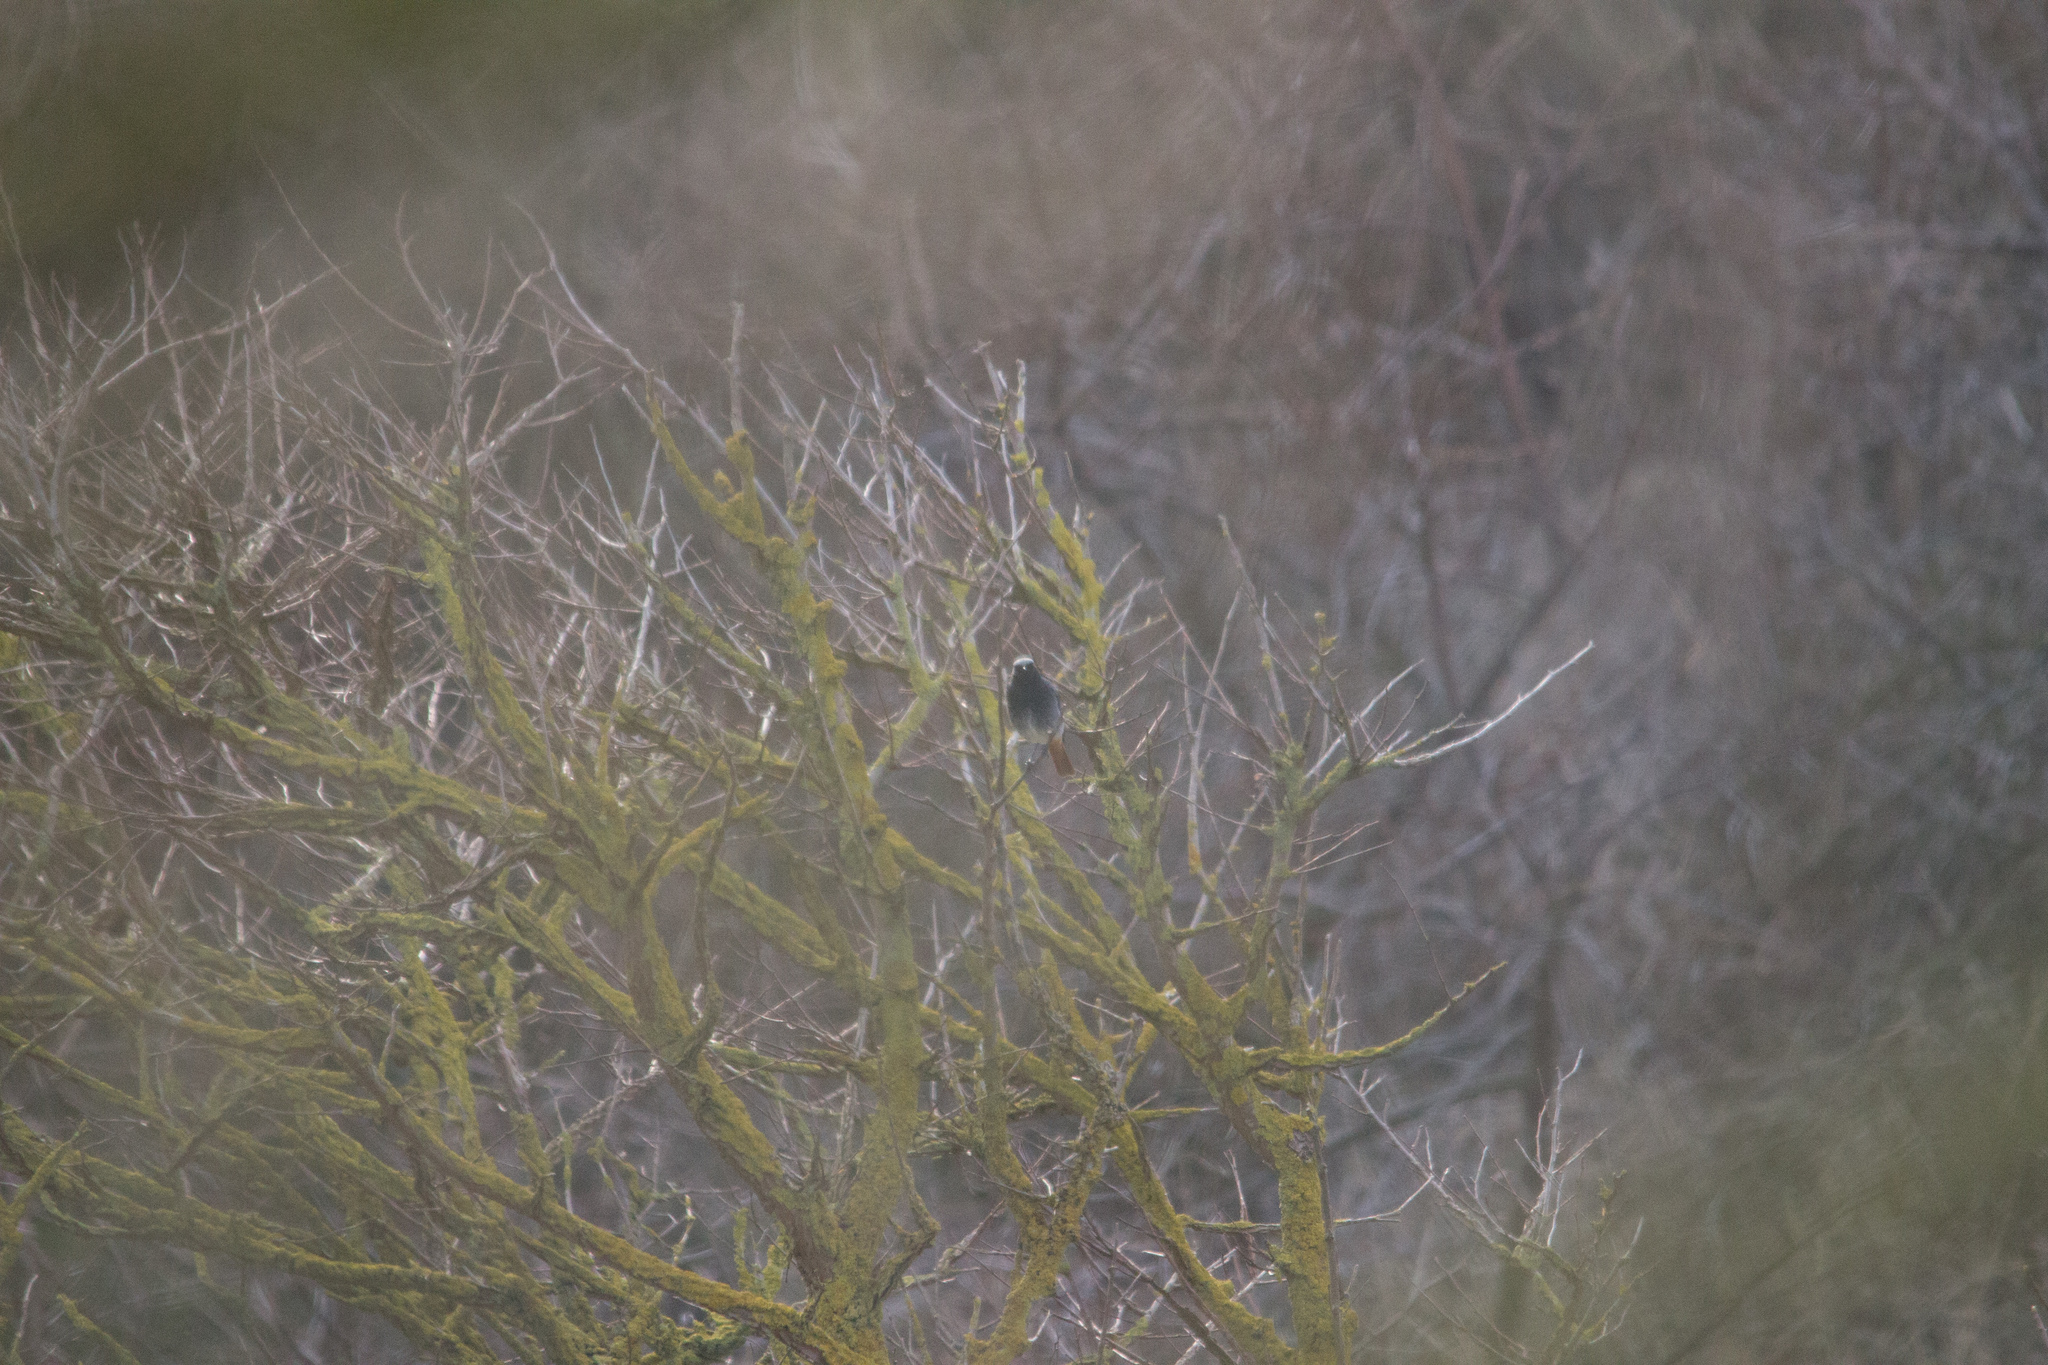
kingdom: Animalia
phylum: Chordata
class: Aves
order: Passeriformes
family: Muscicapidae
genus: Phoenicurus
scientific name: Phoenicurus ochruros
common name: Black redstart
